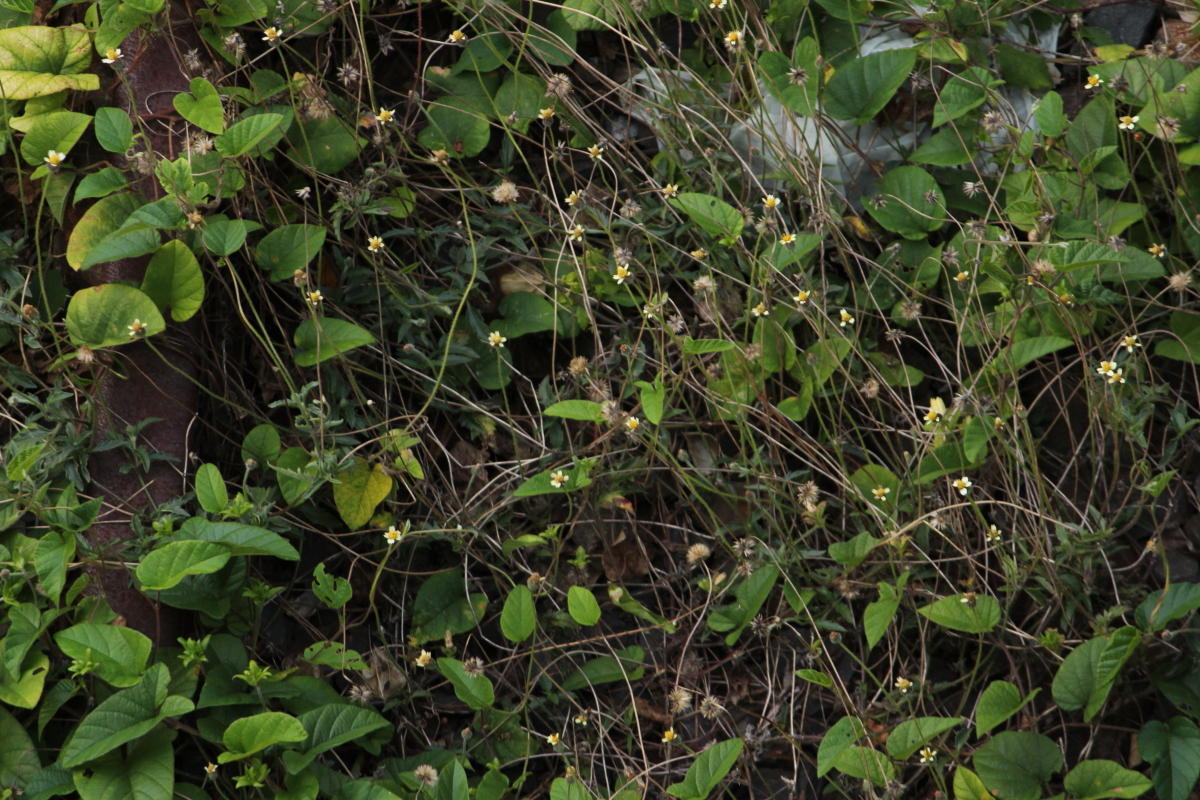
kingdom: Plantae
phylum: Tracheophyta
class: Magnoliopsida
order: Asterales
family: Asteraceae
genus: Tridax
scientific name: Tridax procumbens
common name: Coatbuttons
